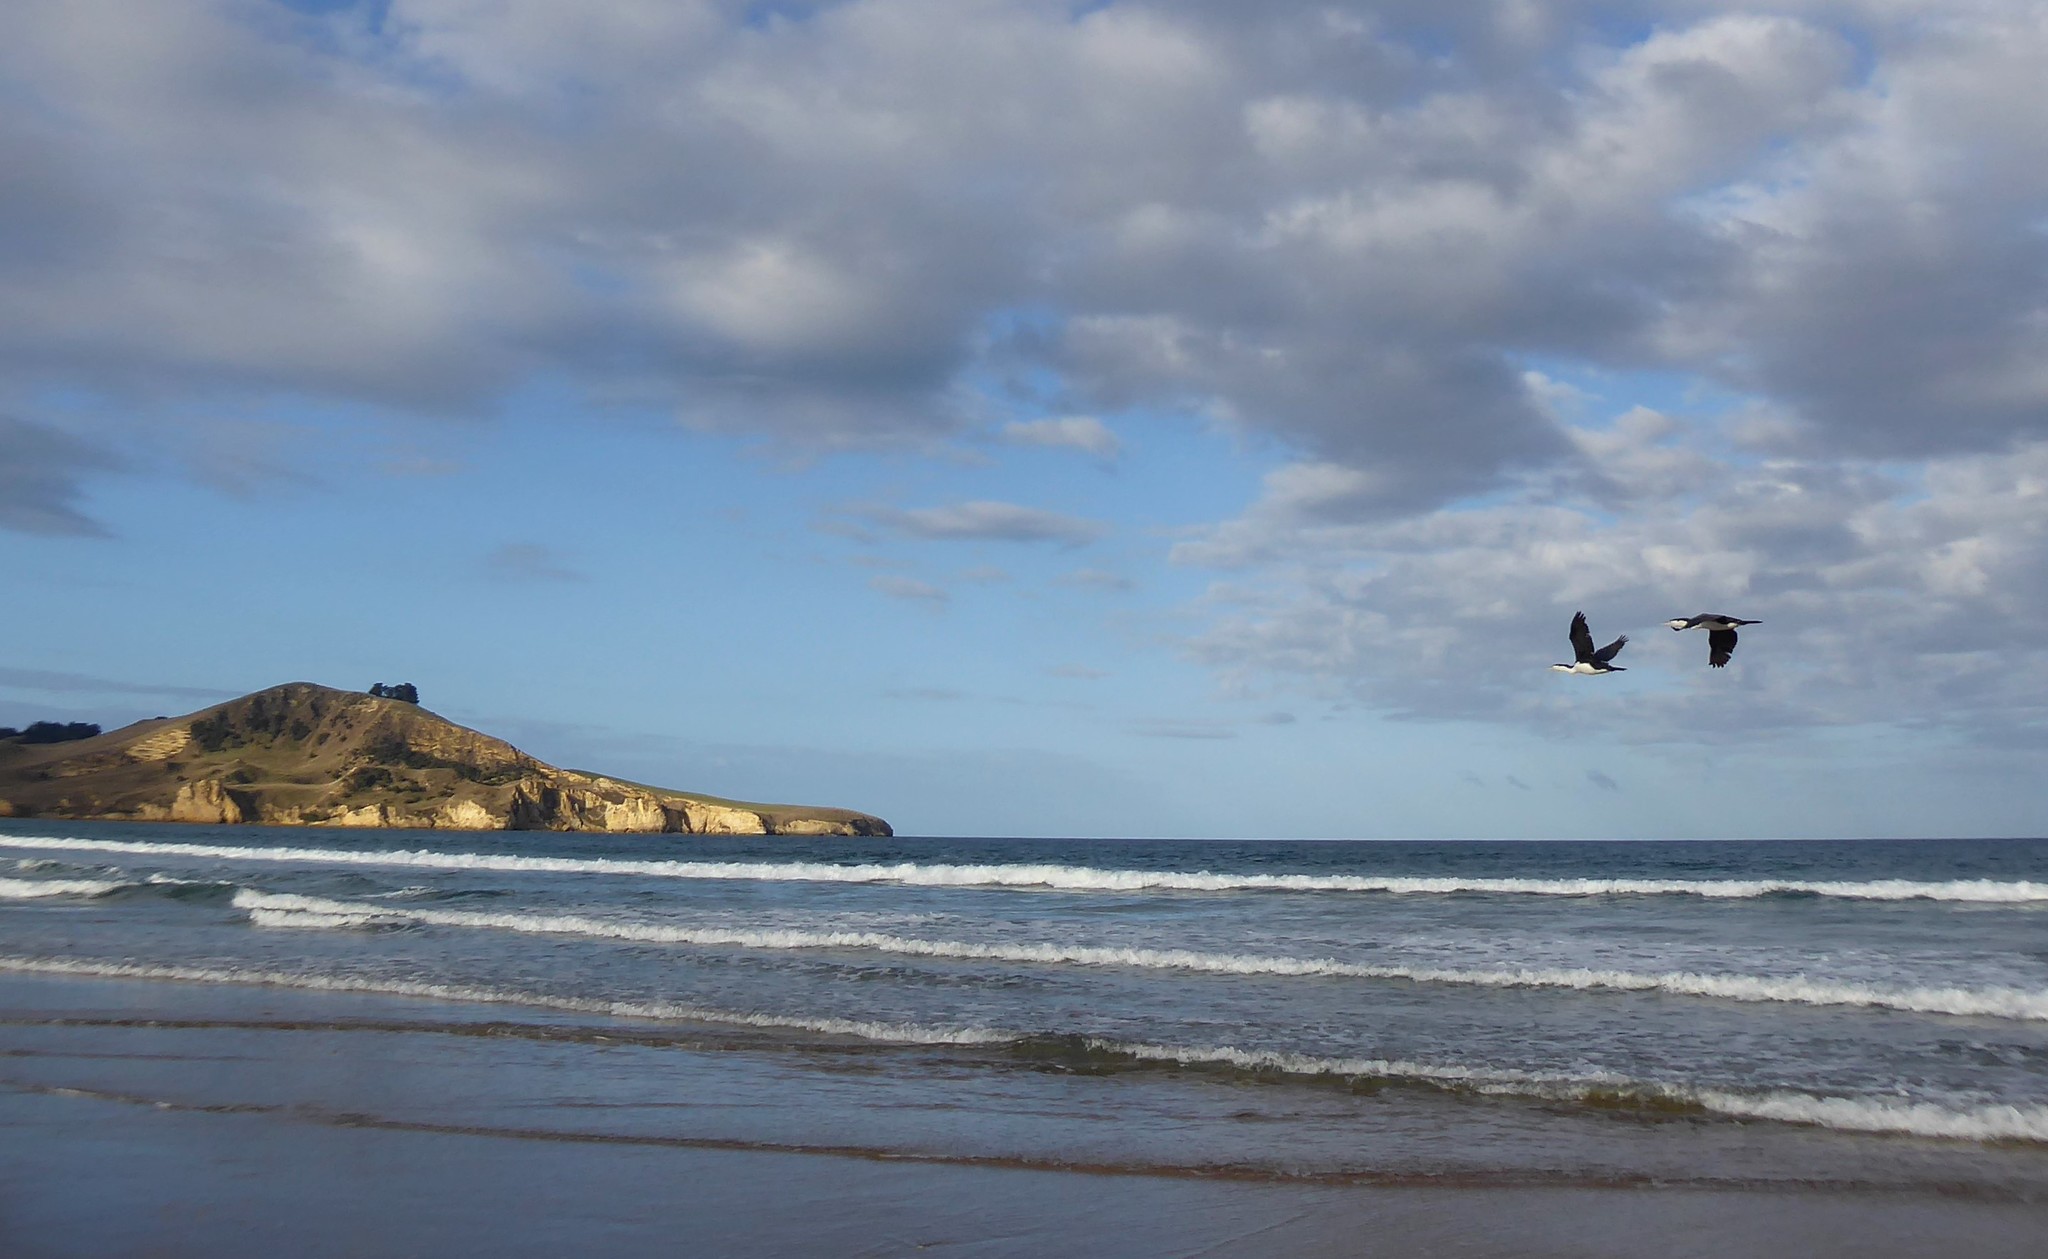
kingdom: Animalia
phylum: Chordata
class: Aves
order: Suliformes
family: Phalacrocoracidae
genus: Phalacrocorax
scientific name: Phalacrocorax varius
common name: Pied cormorant
